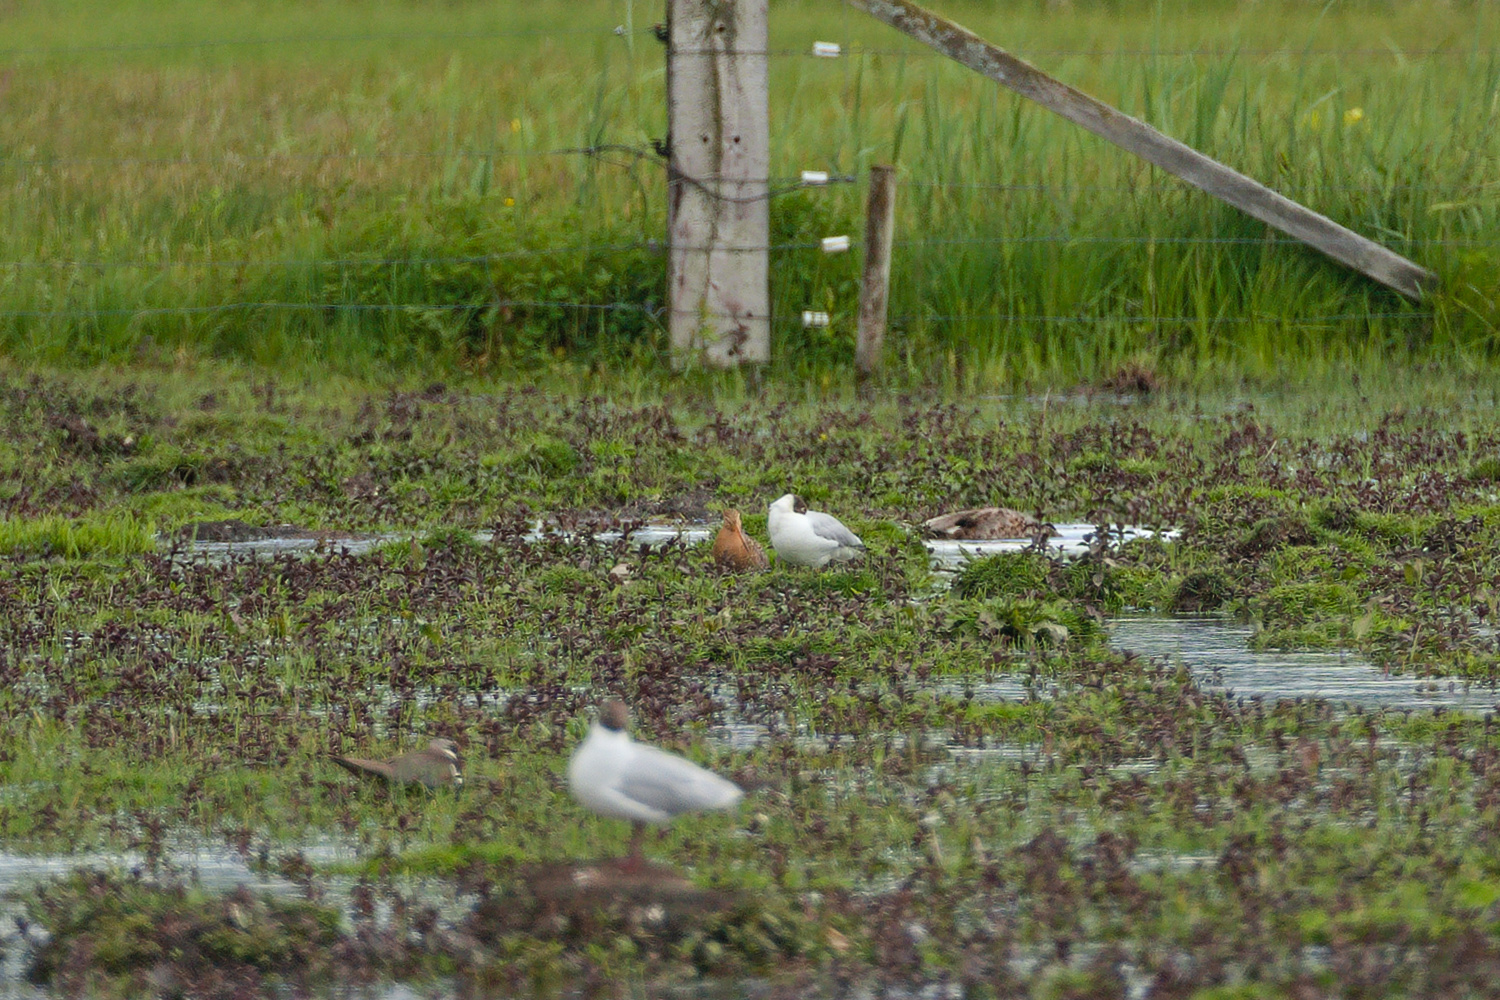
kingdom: Animalia
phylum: Chordata
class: Aves
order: Charadriiformes
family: Scolopacidae
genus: Limosa
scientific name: Limosa limosa
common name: Black-tailed godwit
